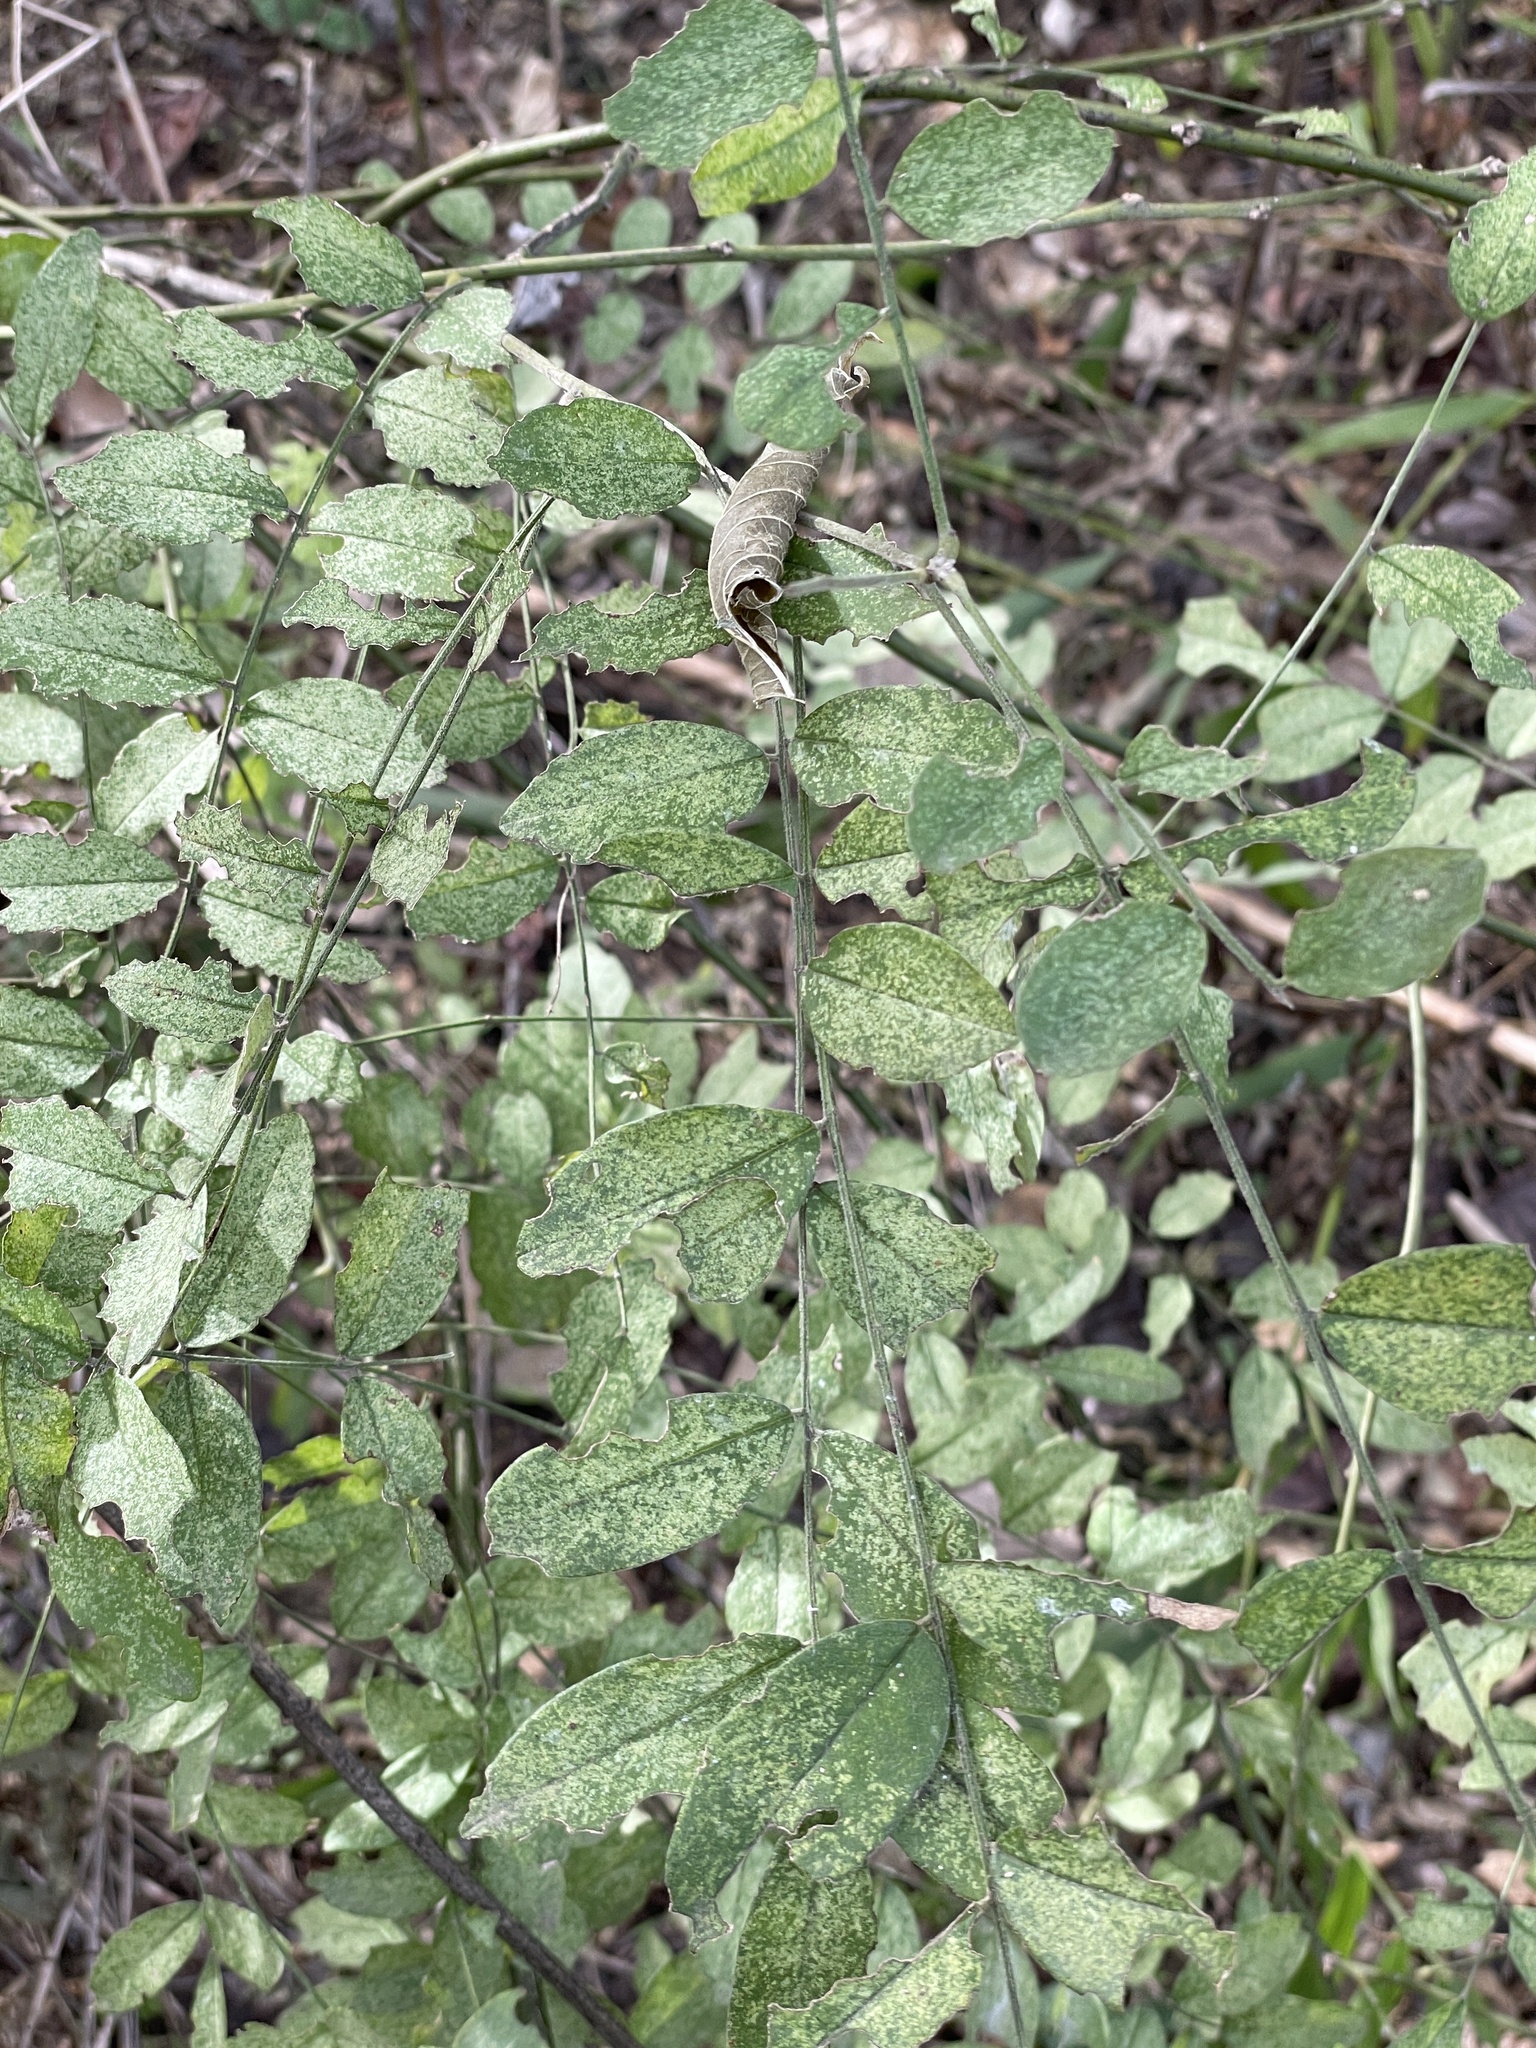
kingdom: Plantae
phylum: Tracheophyta
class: Magnoliopsida
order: Fabales
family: Fabaceae
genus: Styphnolobium
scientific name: Styphnolobium affine
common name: Texas sophora
